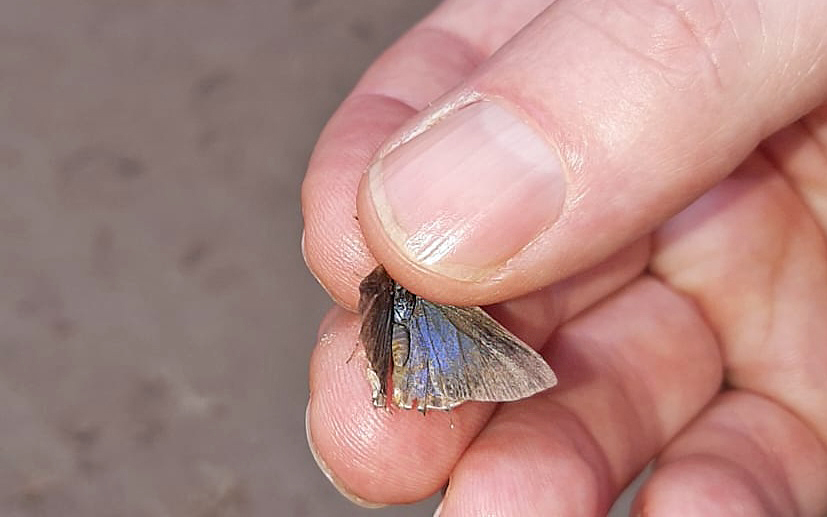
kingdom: Animalia
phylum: Arthropoda
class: Insecta
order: Lepidoptera
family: Lycaenidae
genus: Ziegleria
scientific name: Ziegleria hesperitis
